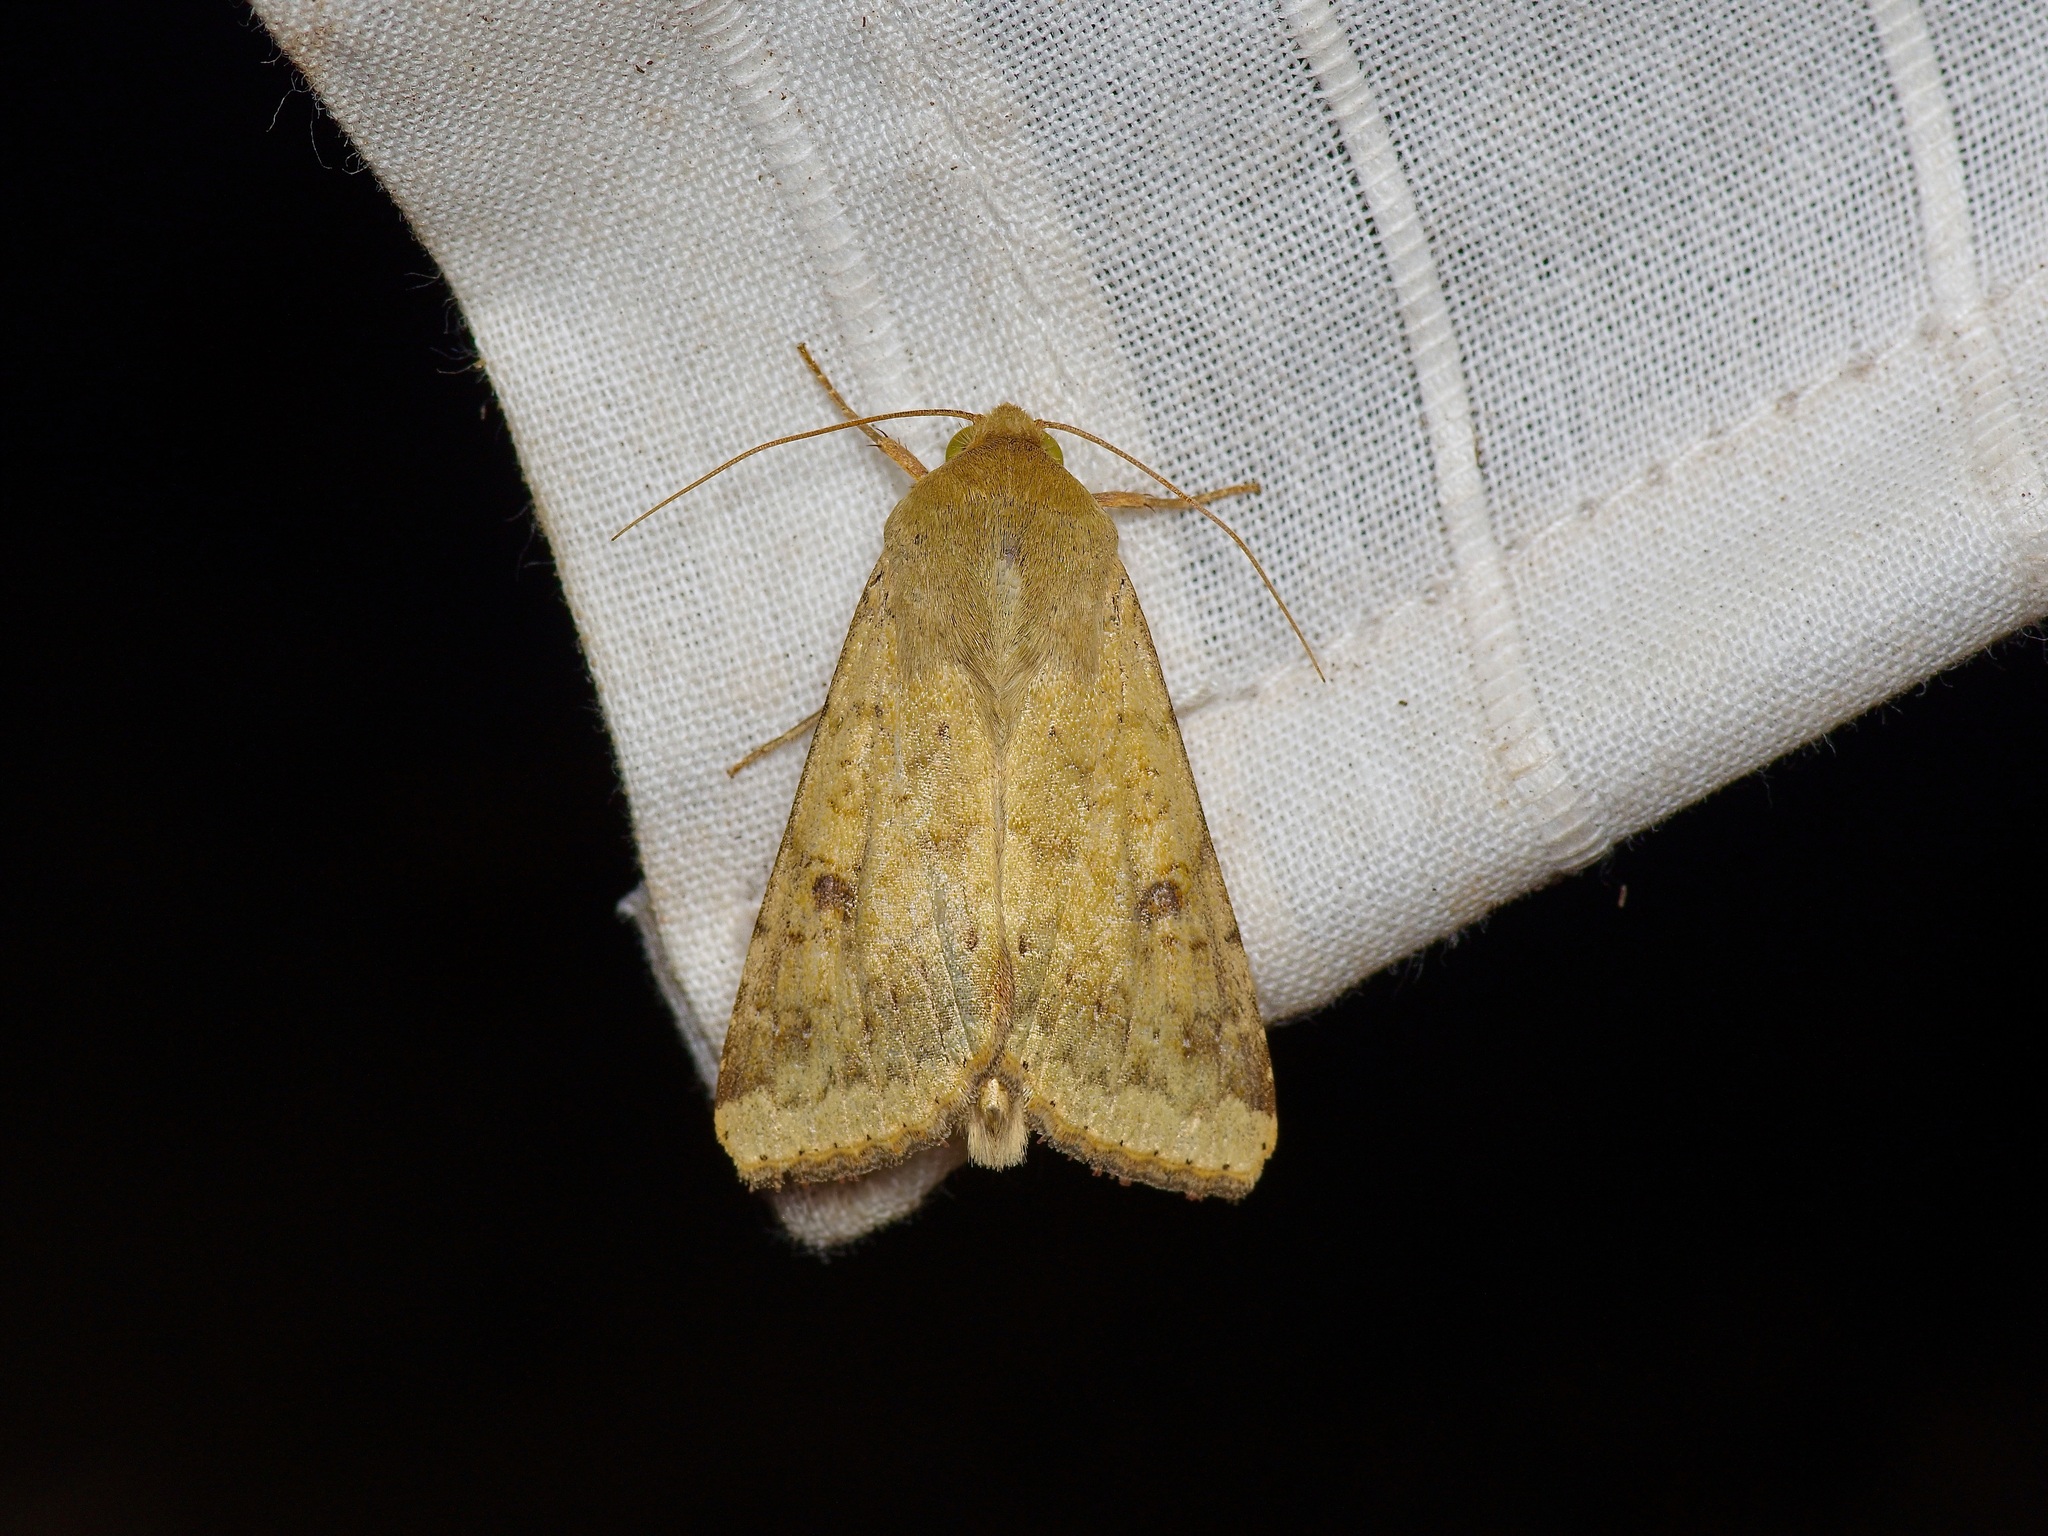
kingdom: Animalia
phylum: Arthropoda
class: Insecta
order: Lepidoptera
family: Noctuidae
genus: Helicoverpa
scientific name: Helicoverpa zea
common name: Bollworm
